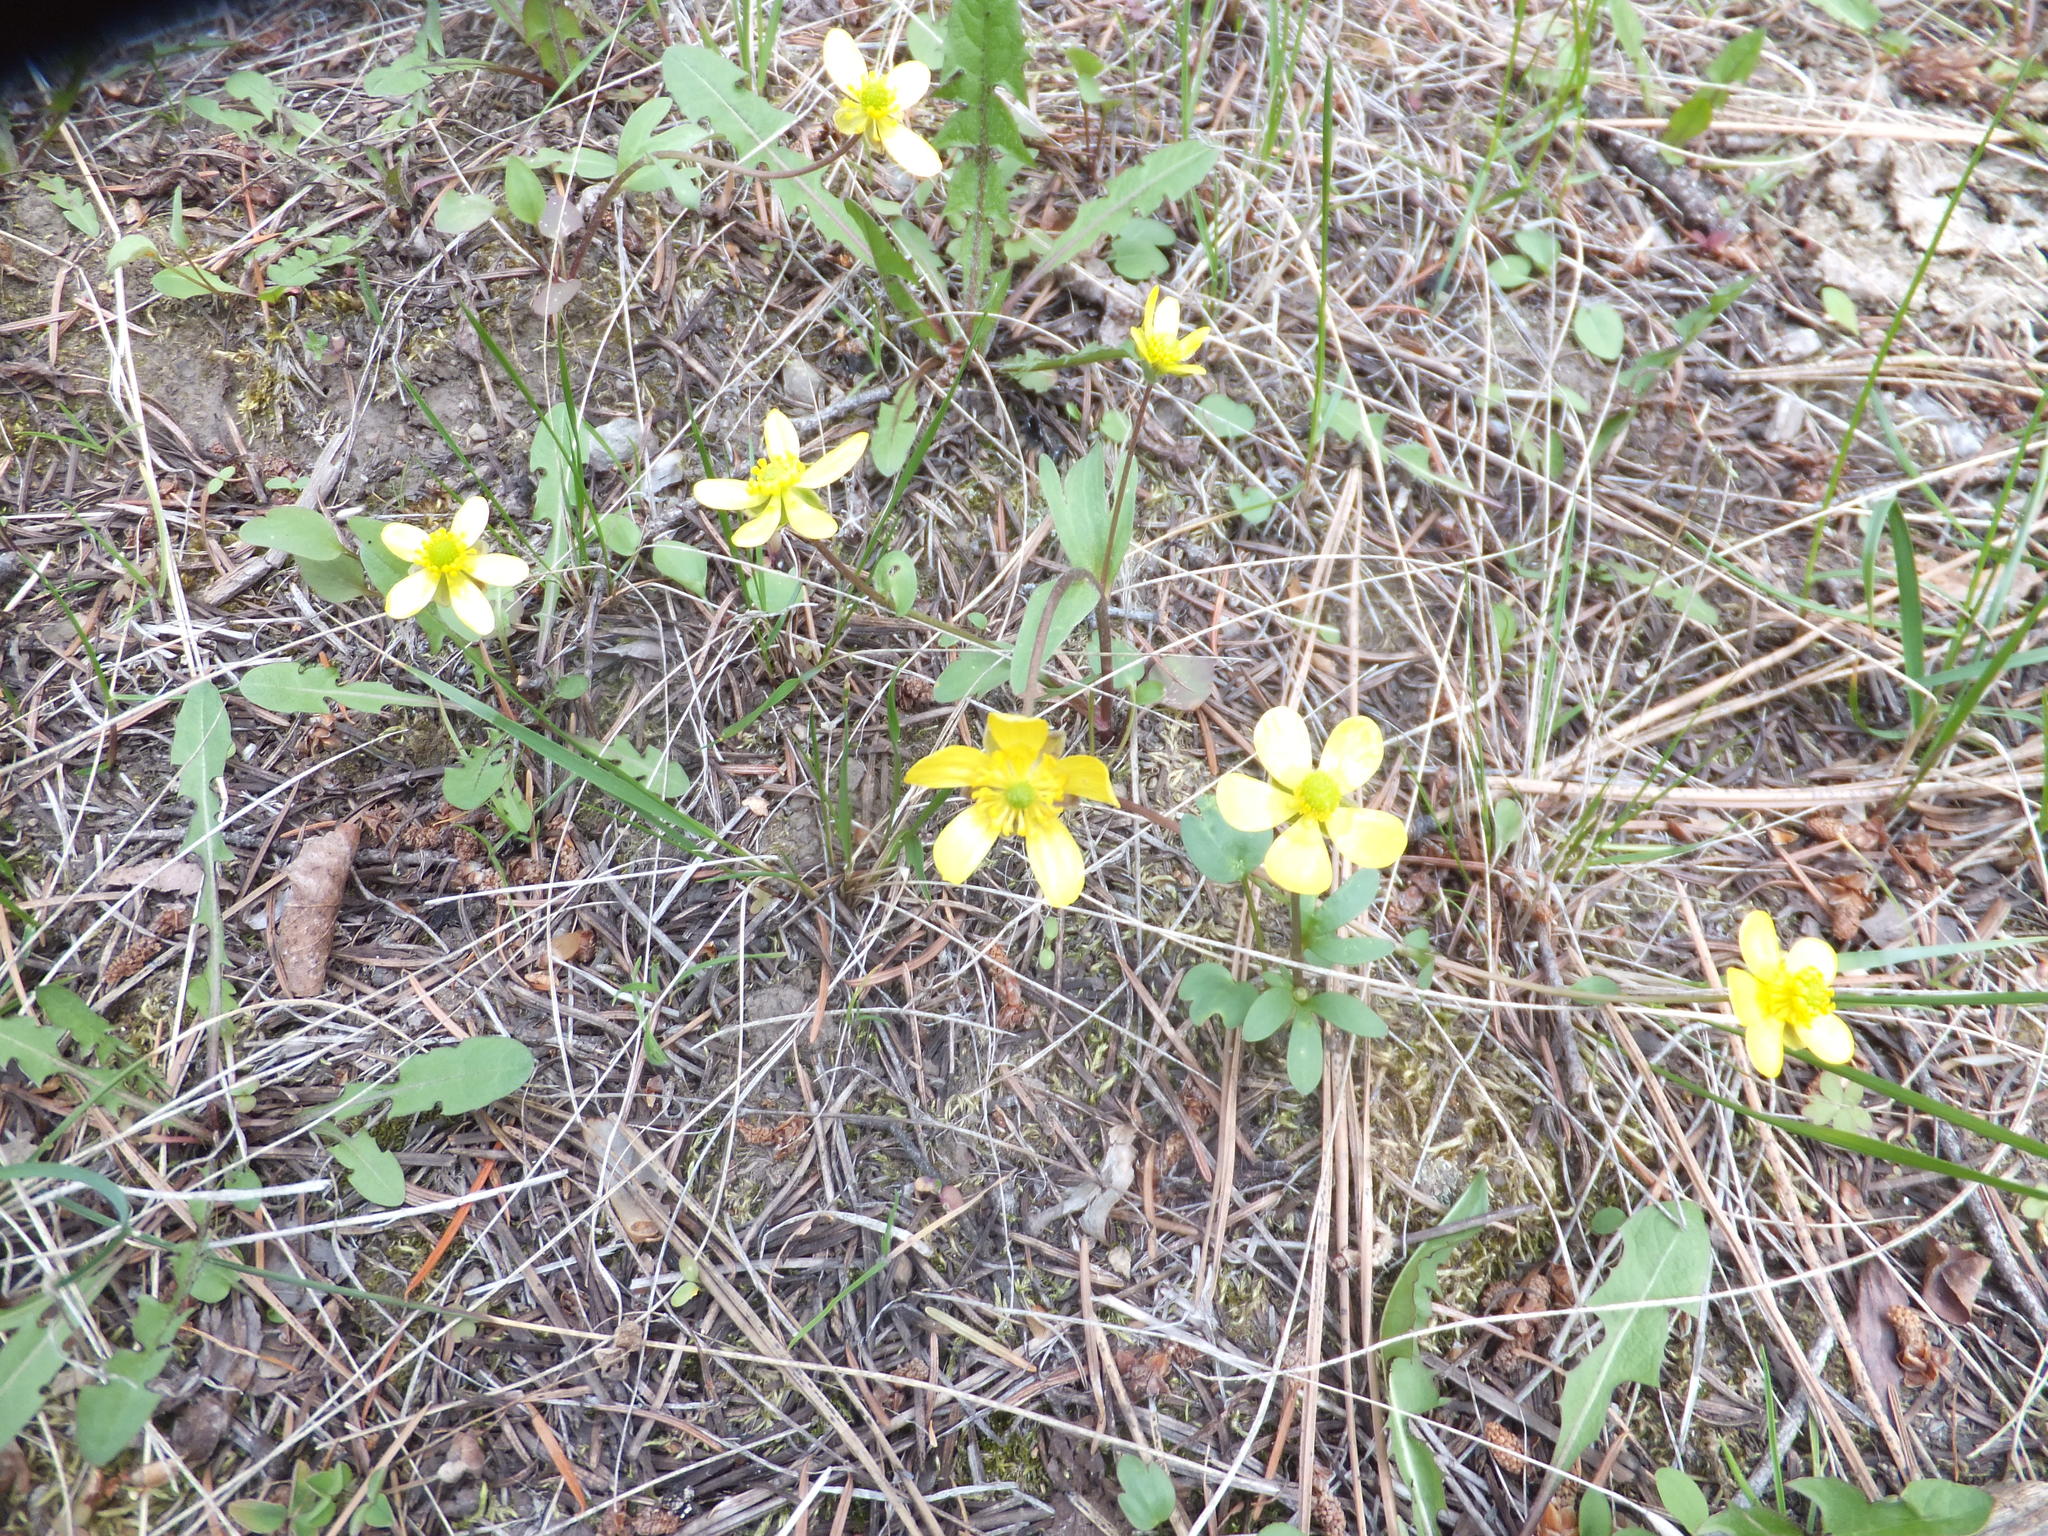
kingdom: Plantae
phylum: Tracheophyta
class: Magnoliopsida
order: Ranunculales
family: Ranunculaceae
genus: Ranunculus
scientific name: Ranunculus glaberrimus
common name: Sagebrush buttercup
